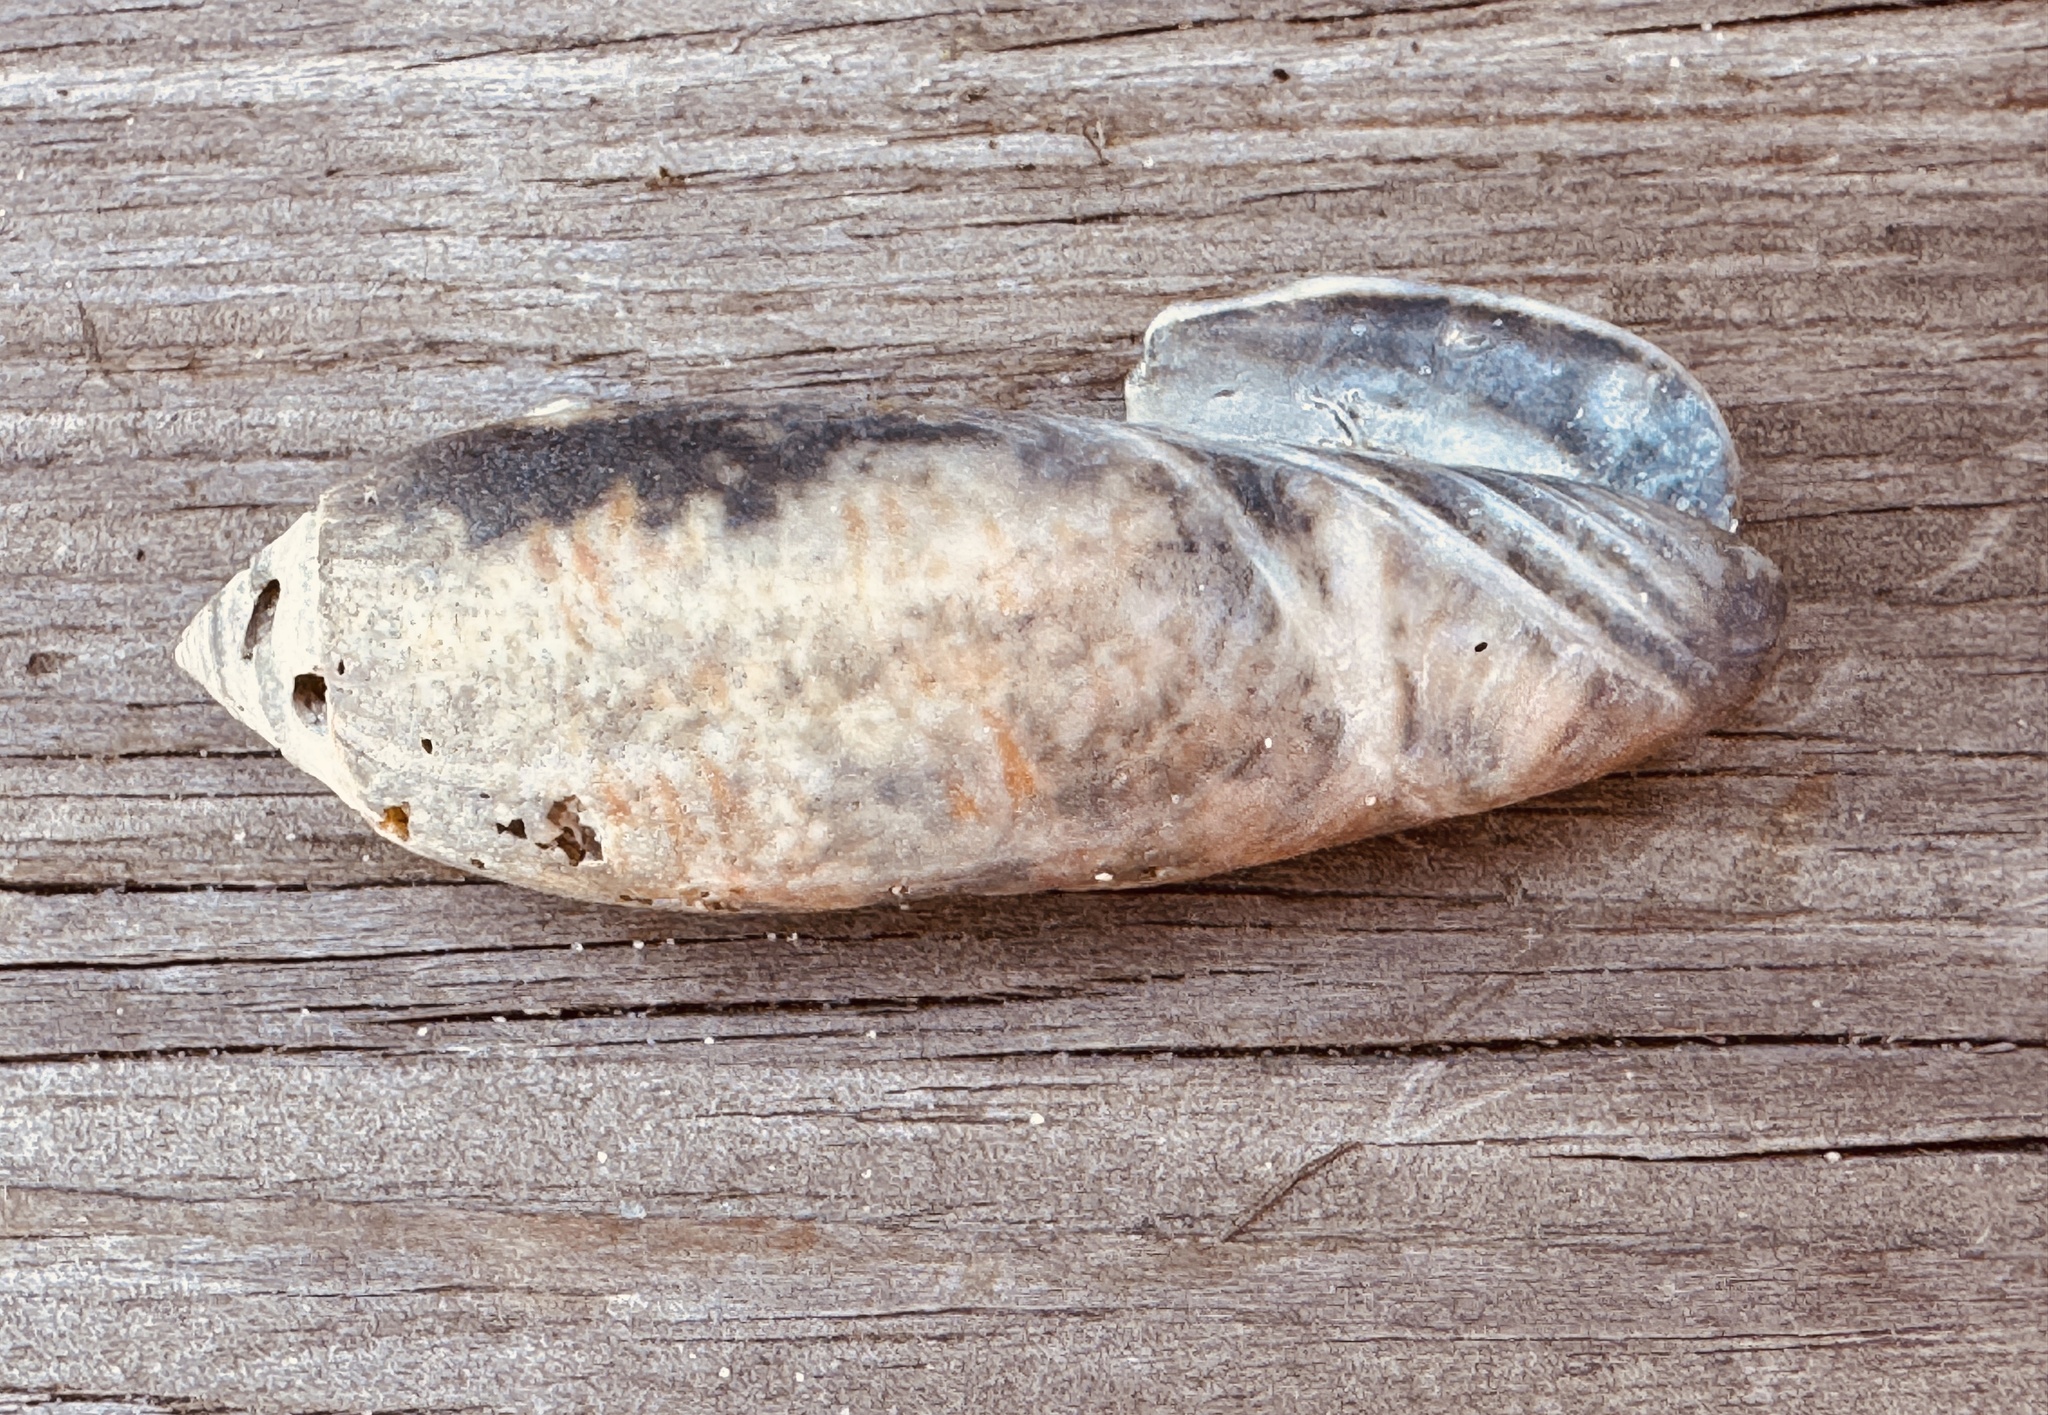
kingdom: Animalia
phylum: Mollusca
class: Gastropoda
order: Neogastropoda
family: Olividae
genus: Oliva
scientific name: Oliva sayana
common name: Lettered olive
